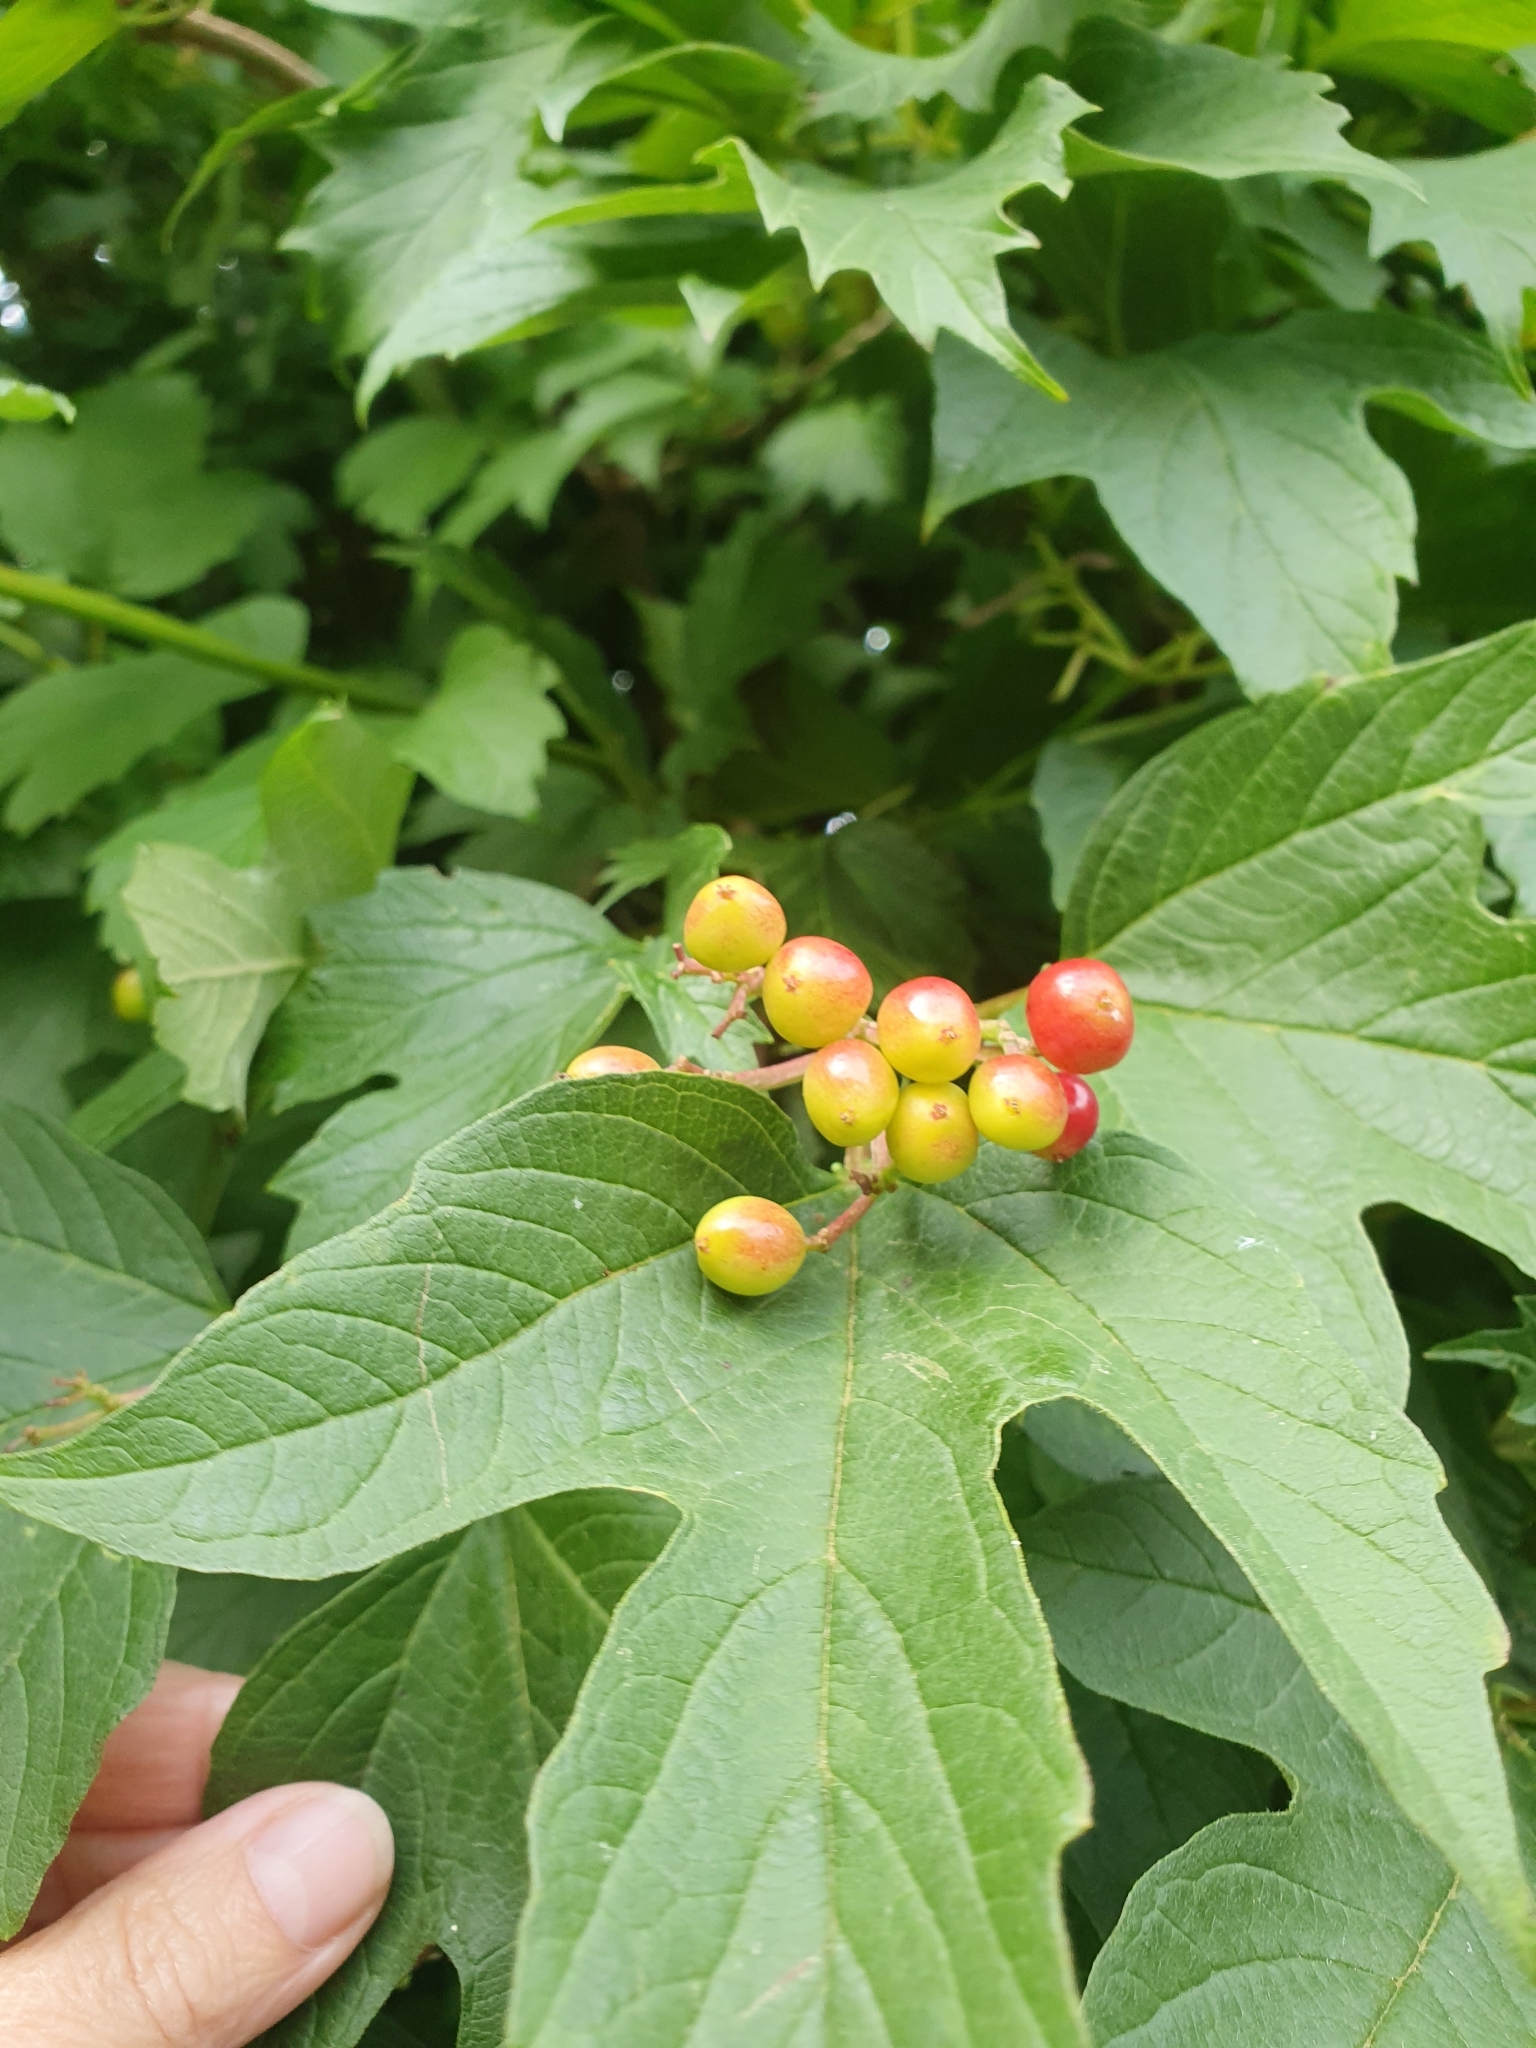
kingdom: Plantae
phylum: Tracheophyta
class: Magnoliopsida
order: Dipsacales
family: Viburnaceae
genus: Viburnum
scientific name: Viburnum opulus
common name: Guelder-rose
